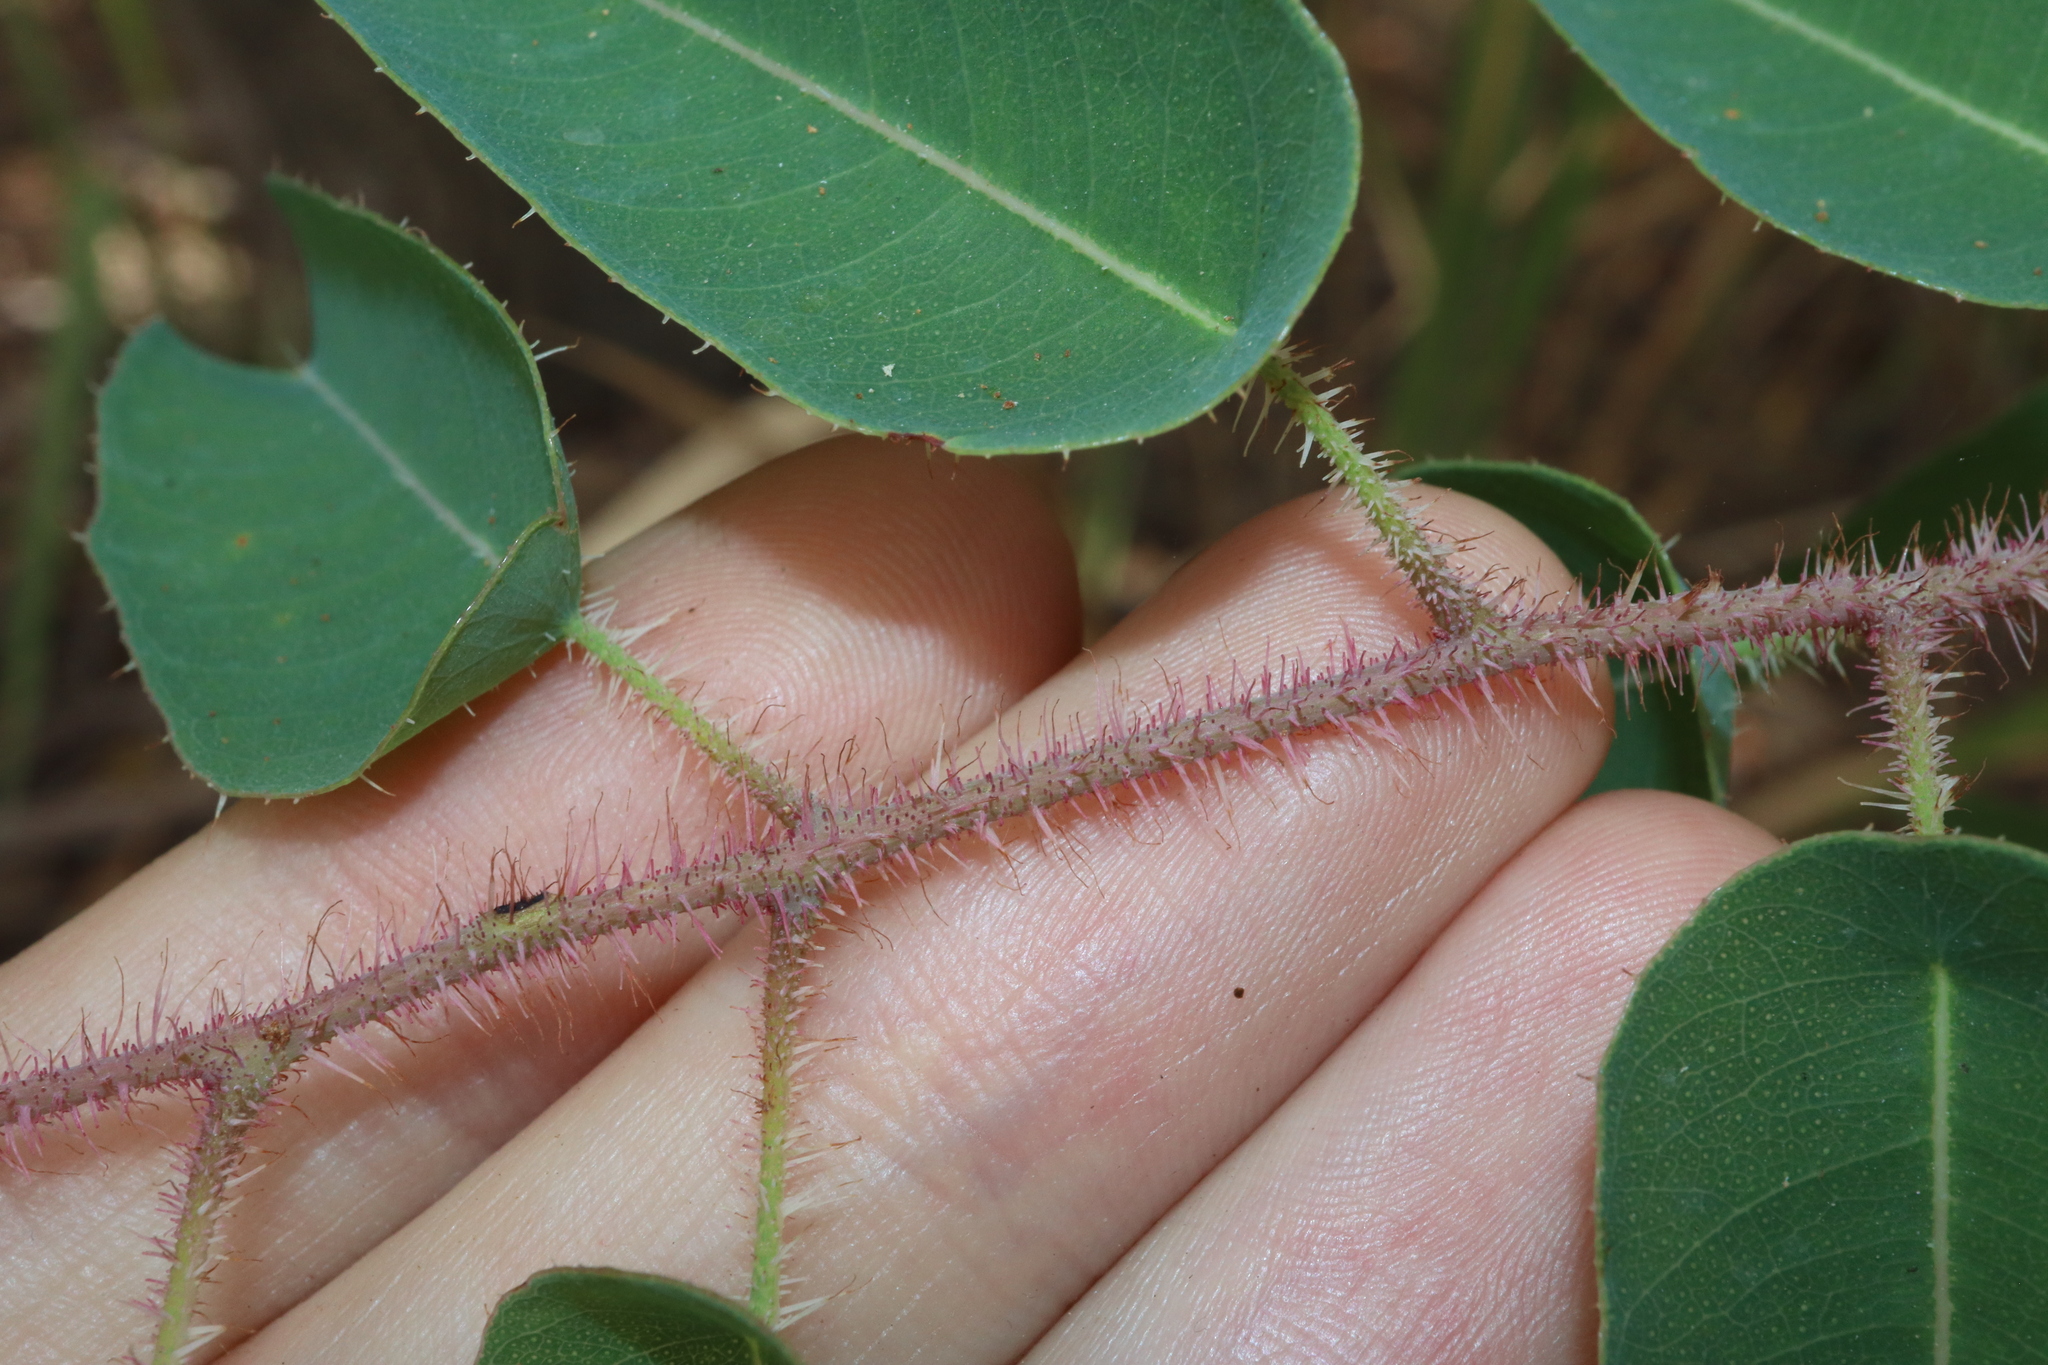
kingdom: Plantae
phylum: Tracheophyta
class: Magnoliopsida
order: Myrtales
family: Myrtaceae
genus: Corymbia
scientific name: Corymbia citriodora
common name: Lemonscented gum
